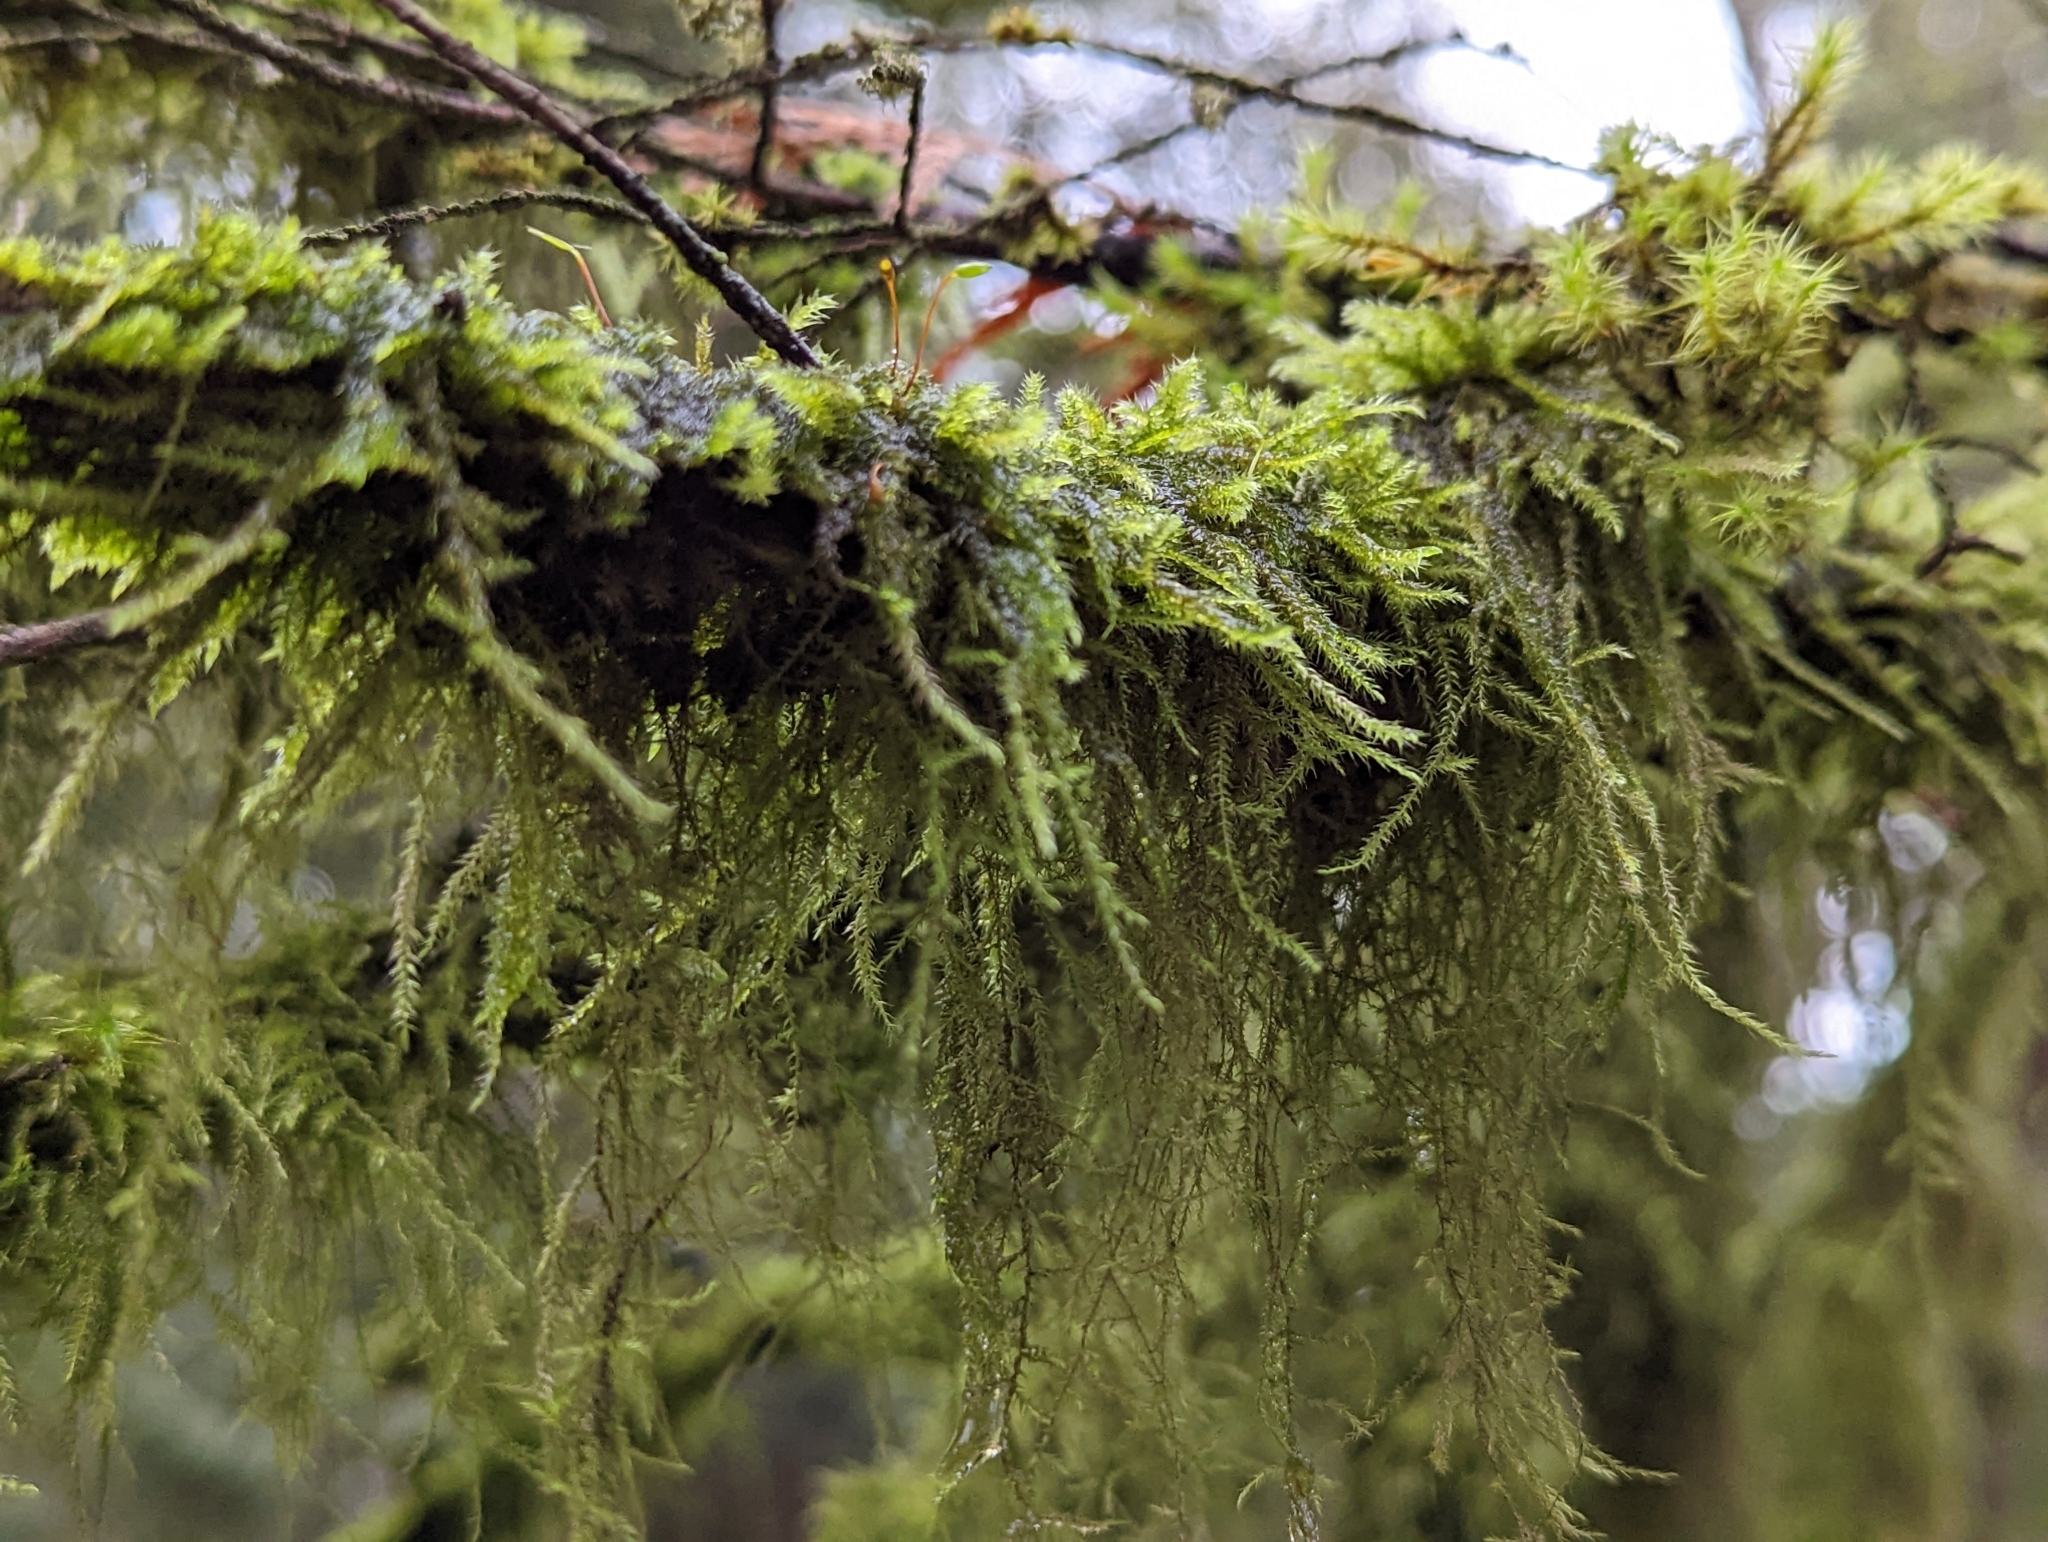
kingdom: Plantae
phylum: Bryophyta
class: Bryopsida
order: Hypnales
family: Lembophyllaceae
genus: Pseudisothecium
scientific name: Pseudisothecium stoloniferum
